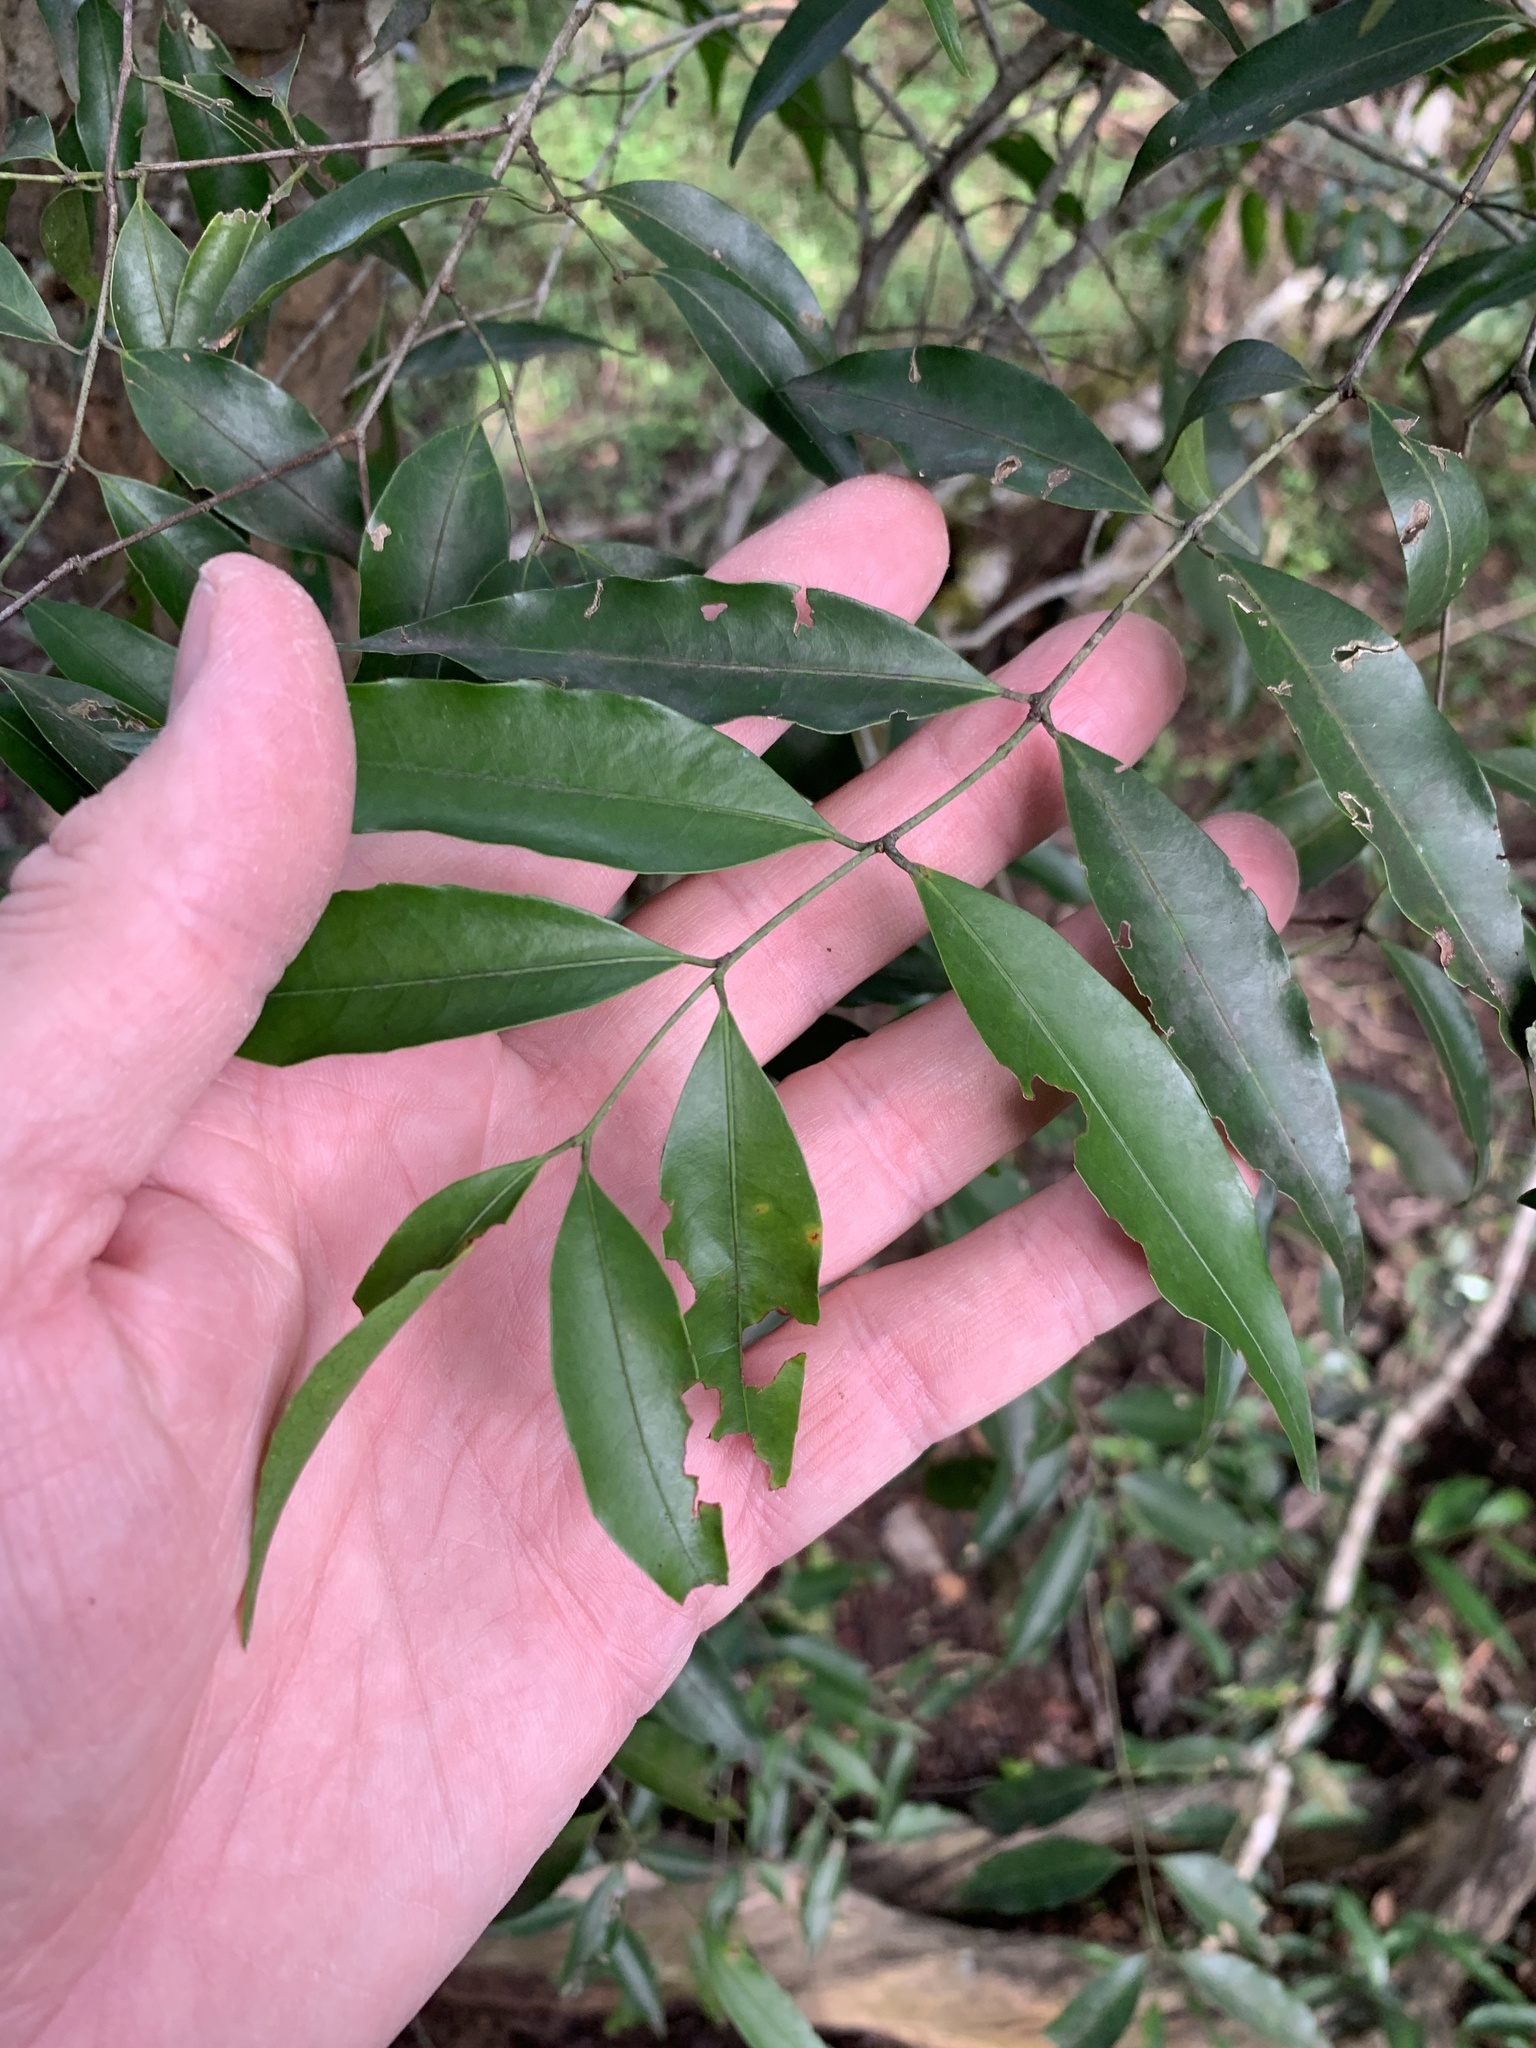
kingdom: Plantae
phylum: Tracheophyta
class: Magnoliopsida
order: Celastrales
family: Celastraceae
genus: Salacia
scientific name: Salacia leptoclada
